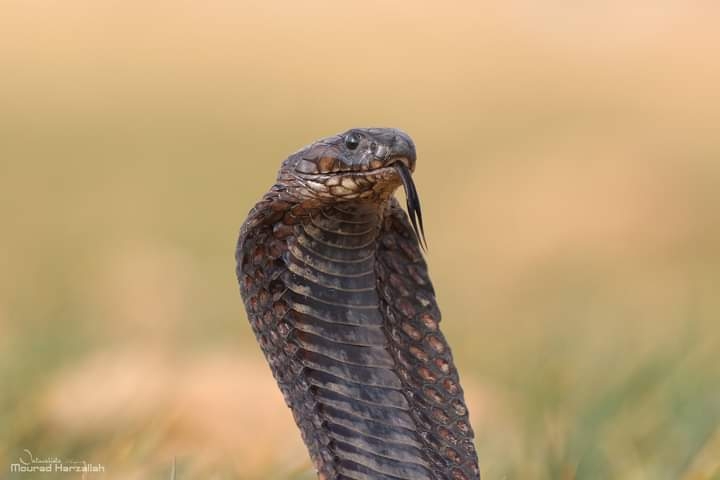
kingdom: Animalia
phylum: Chordata
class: Squamata
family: Elapidae
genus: Naja
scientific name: Naja haje
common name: Egyptian cobra
